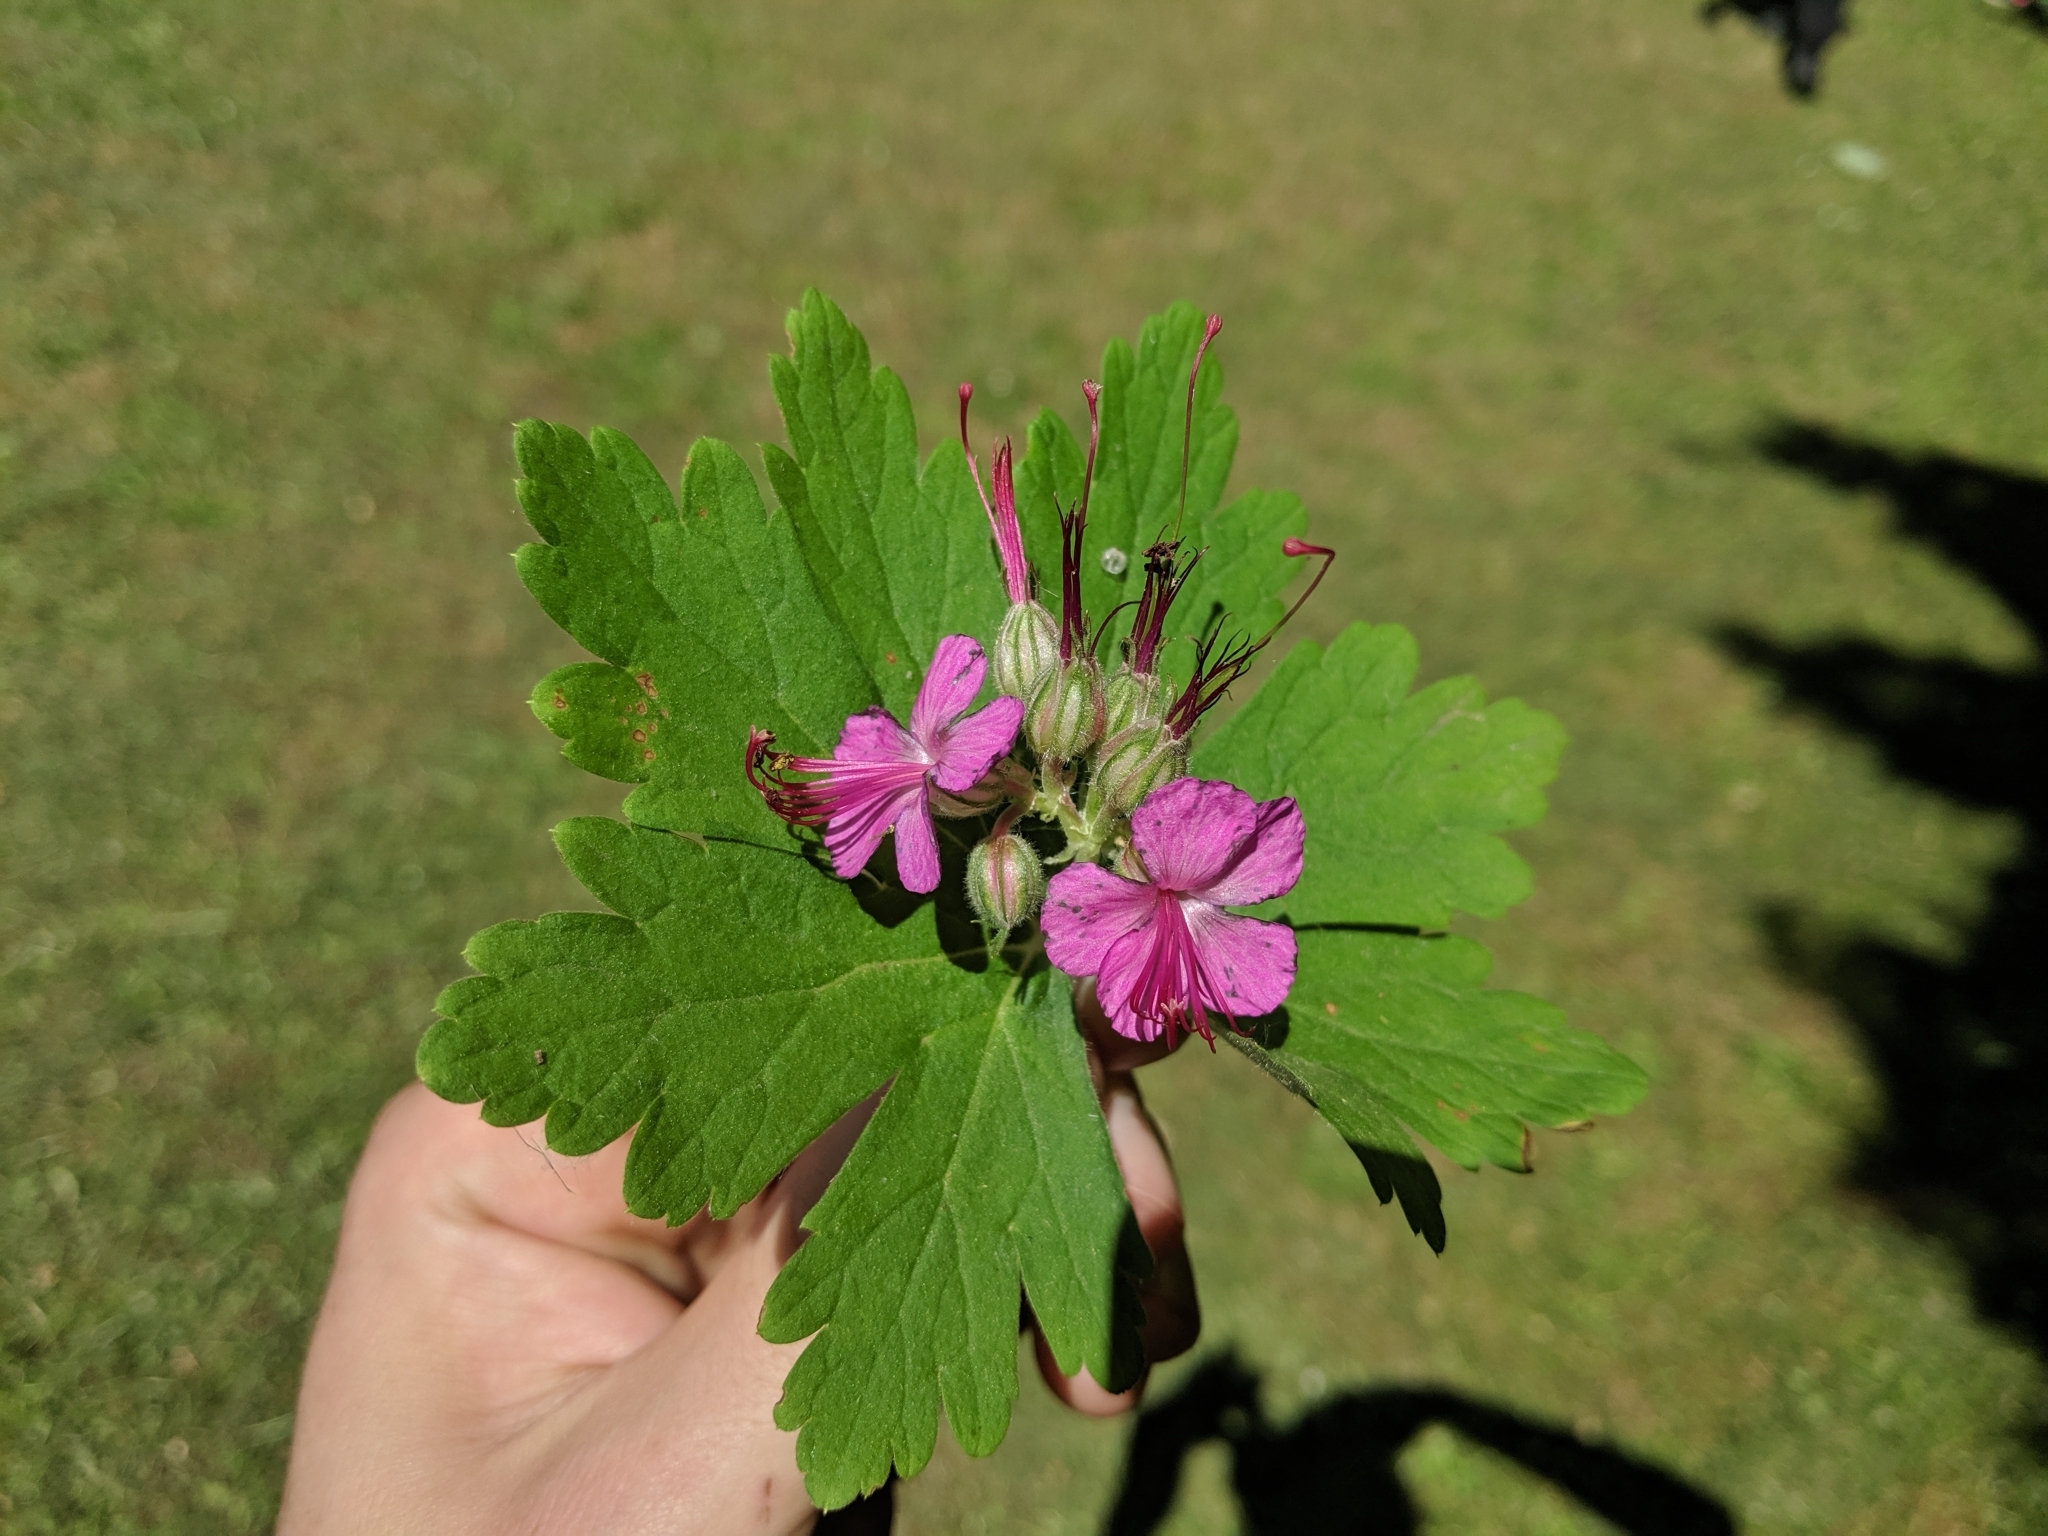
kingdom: Plantae
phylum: Tracheophyta
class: Magnoliopsida
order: Geraniales
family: Geraniaceae
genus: Geranium
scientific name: Geranium macrorrhizum
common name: Rock crane's-bill
